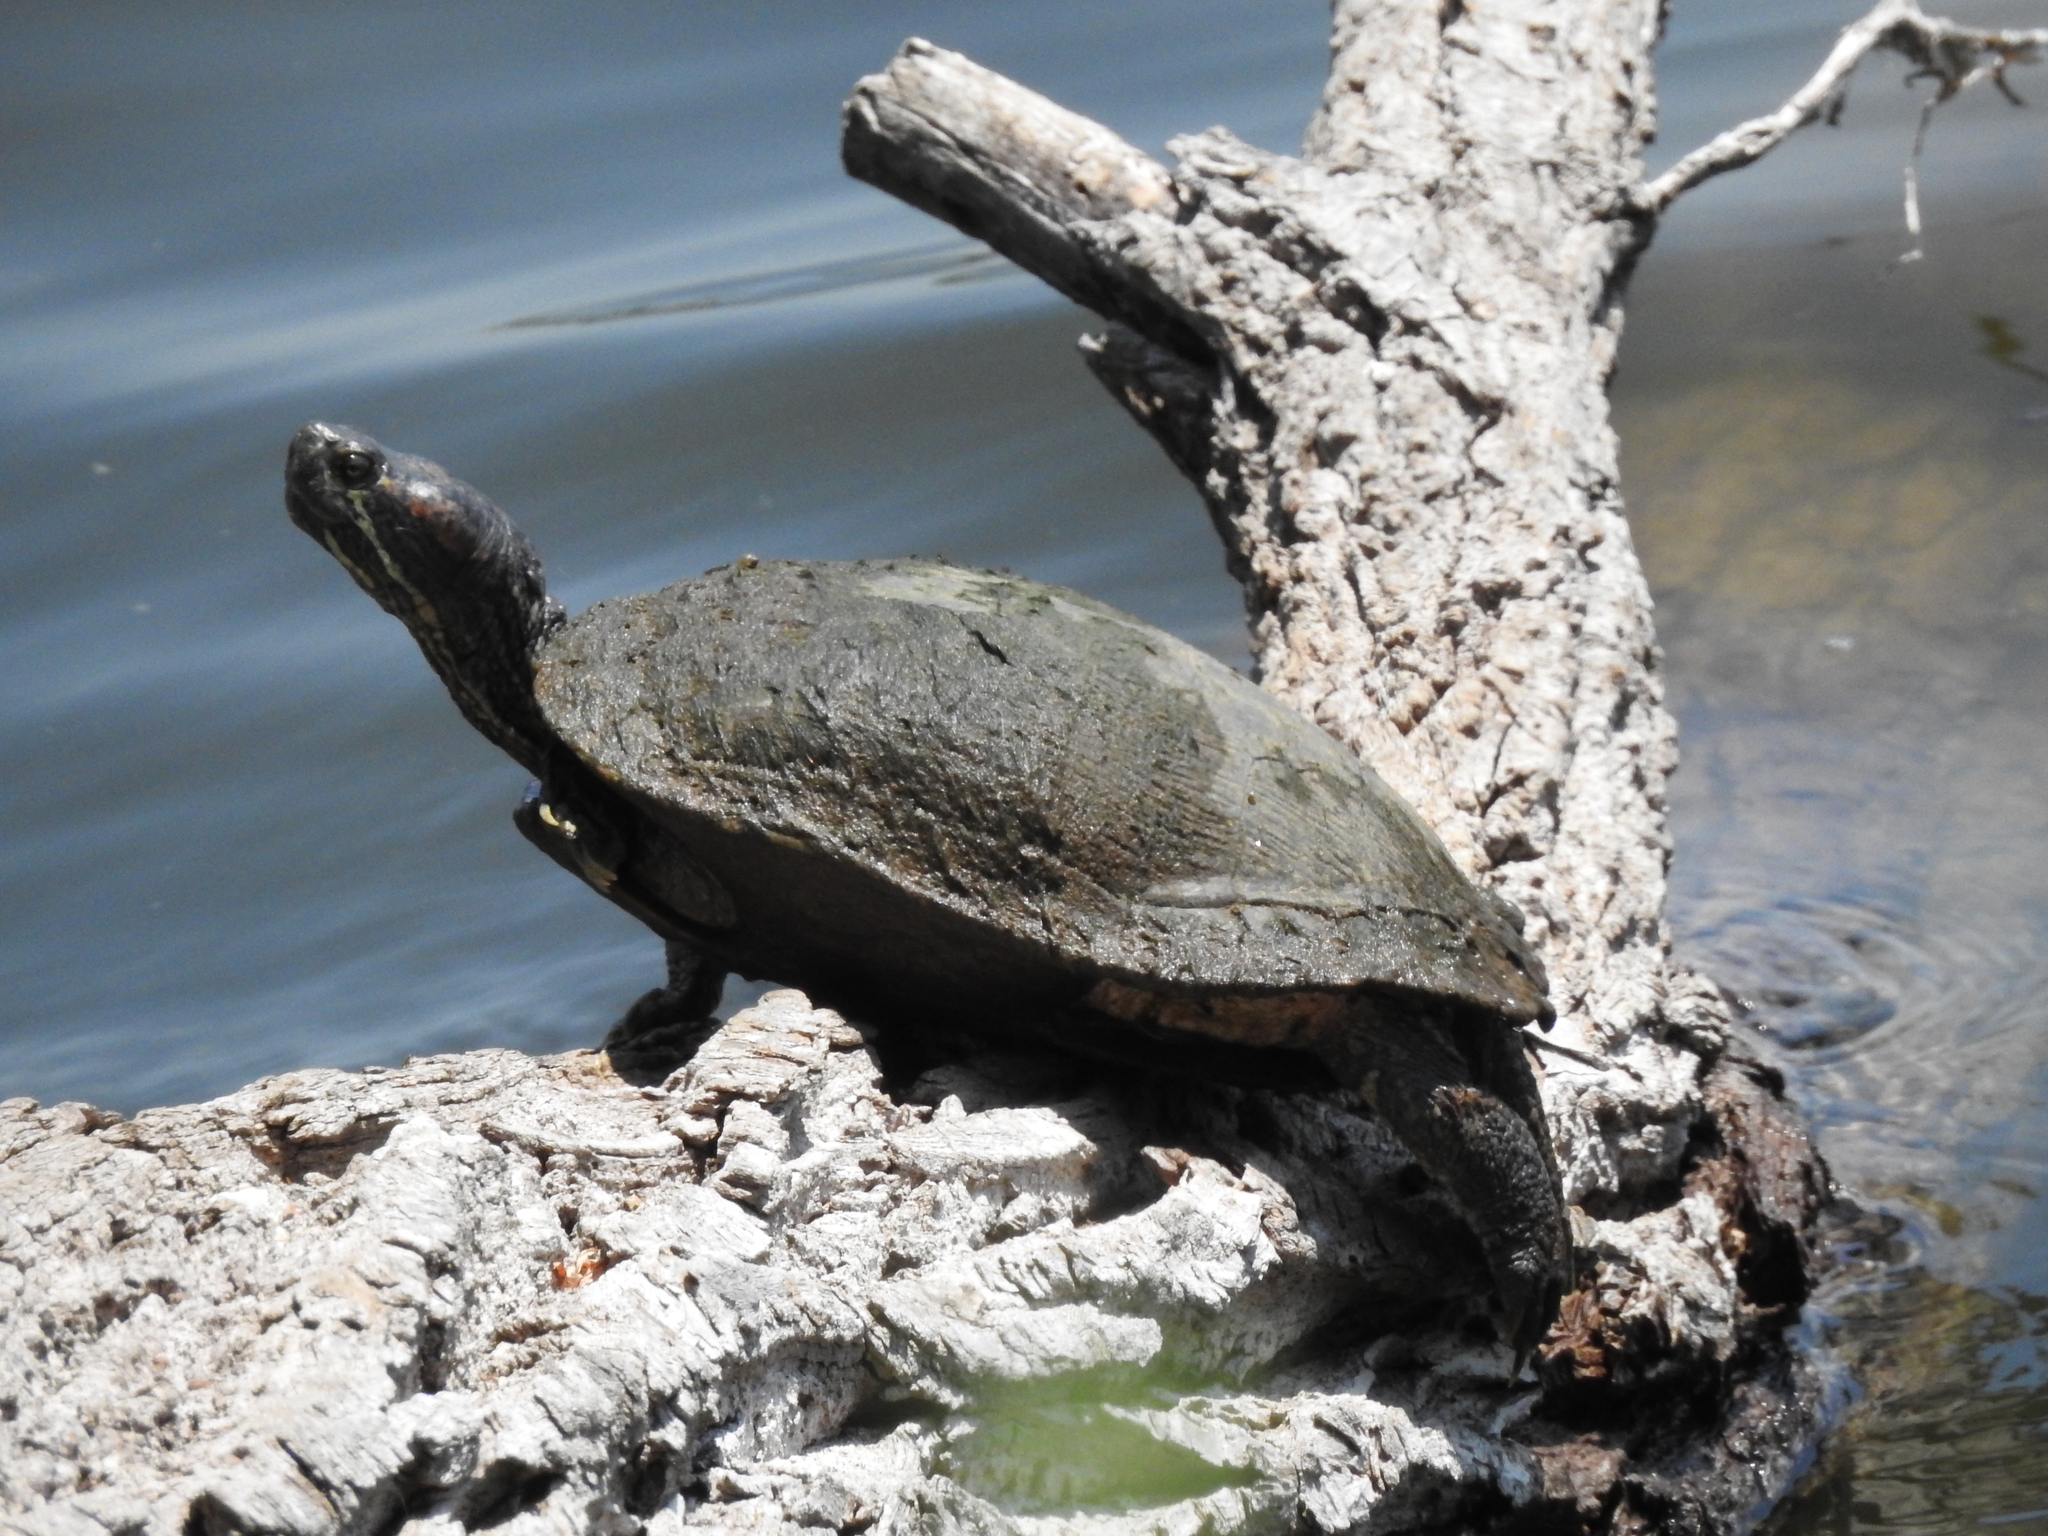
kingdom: Animalia
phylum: Chordata
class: Testudines
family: Emydidae
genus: Trachemys
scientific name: Trachemys scripta
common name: Slider
